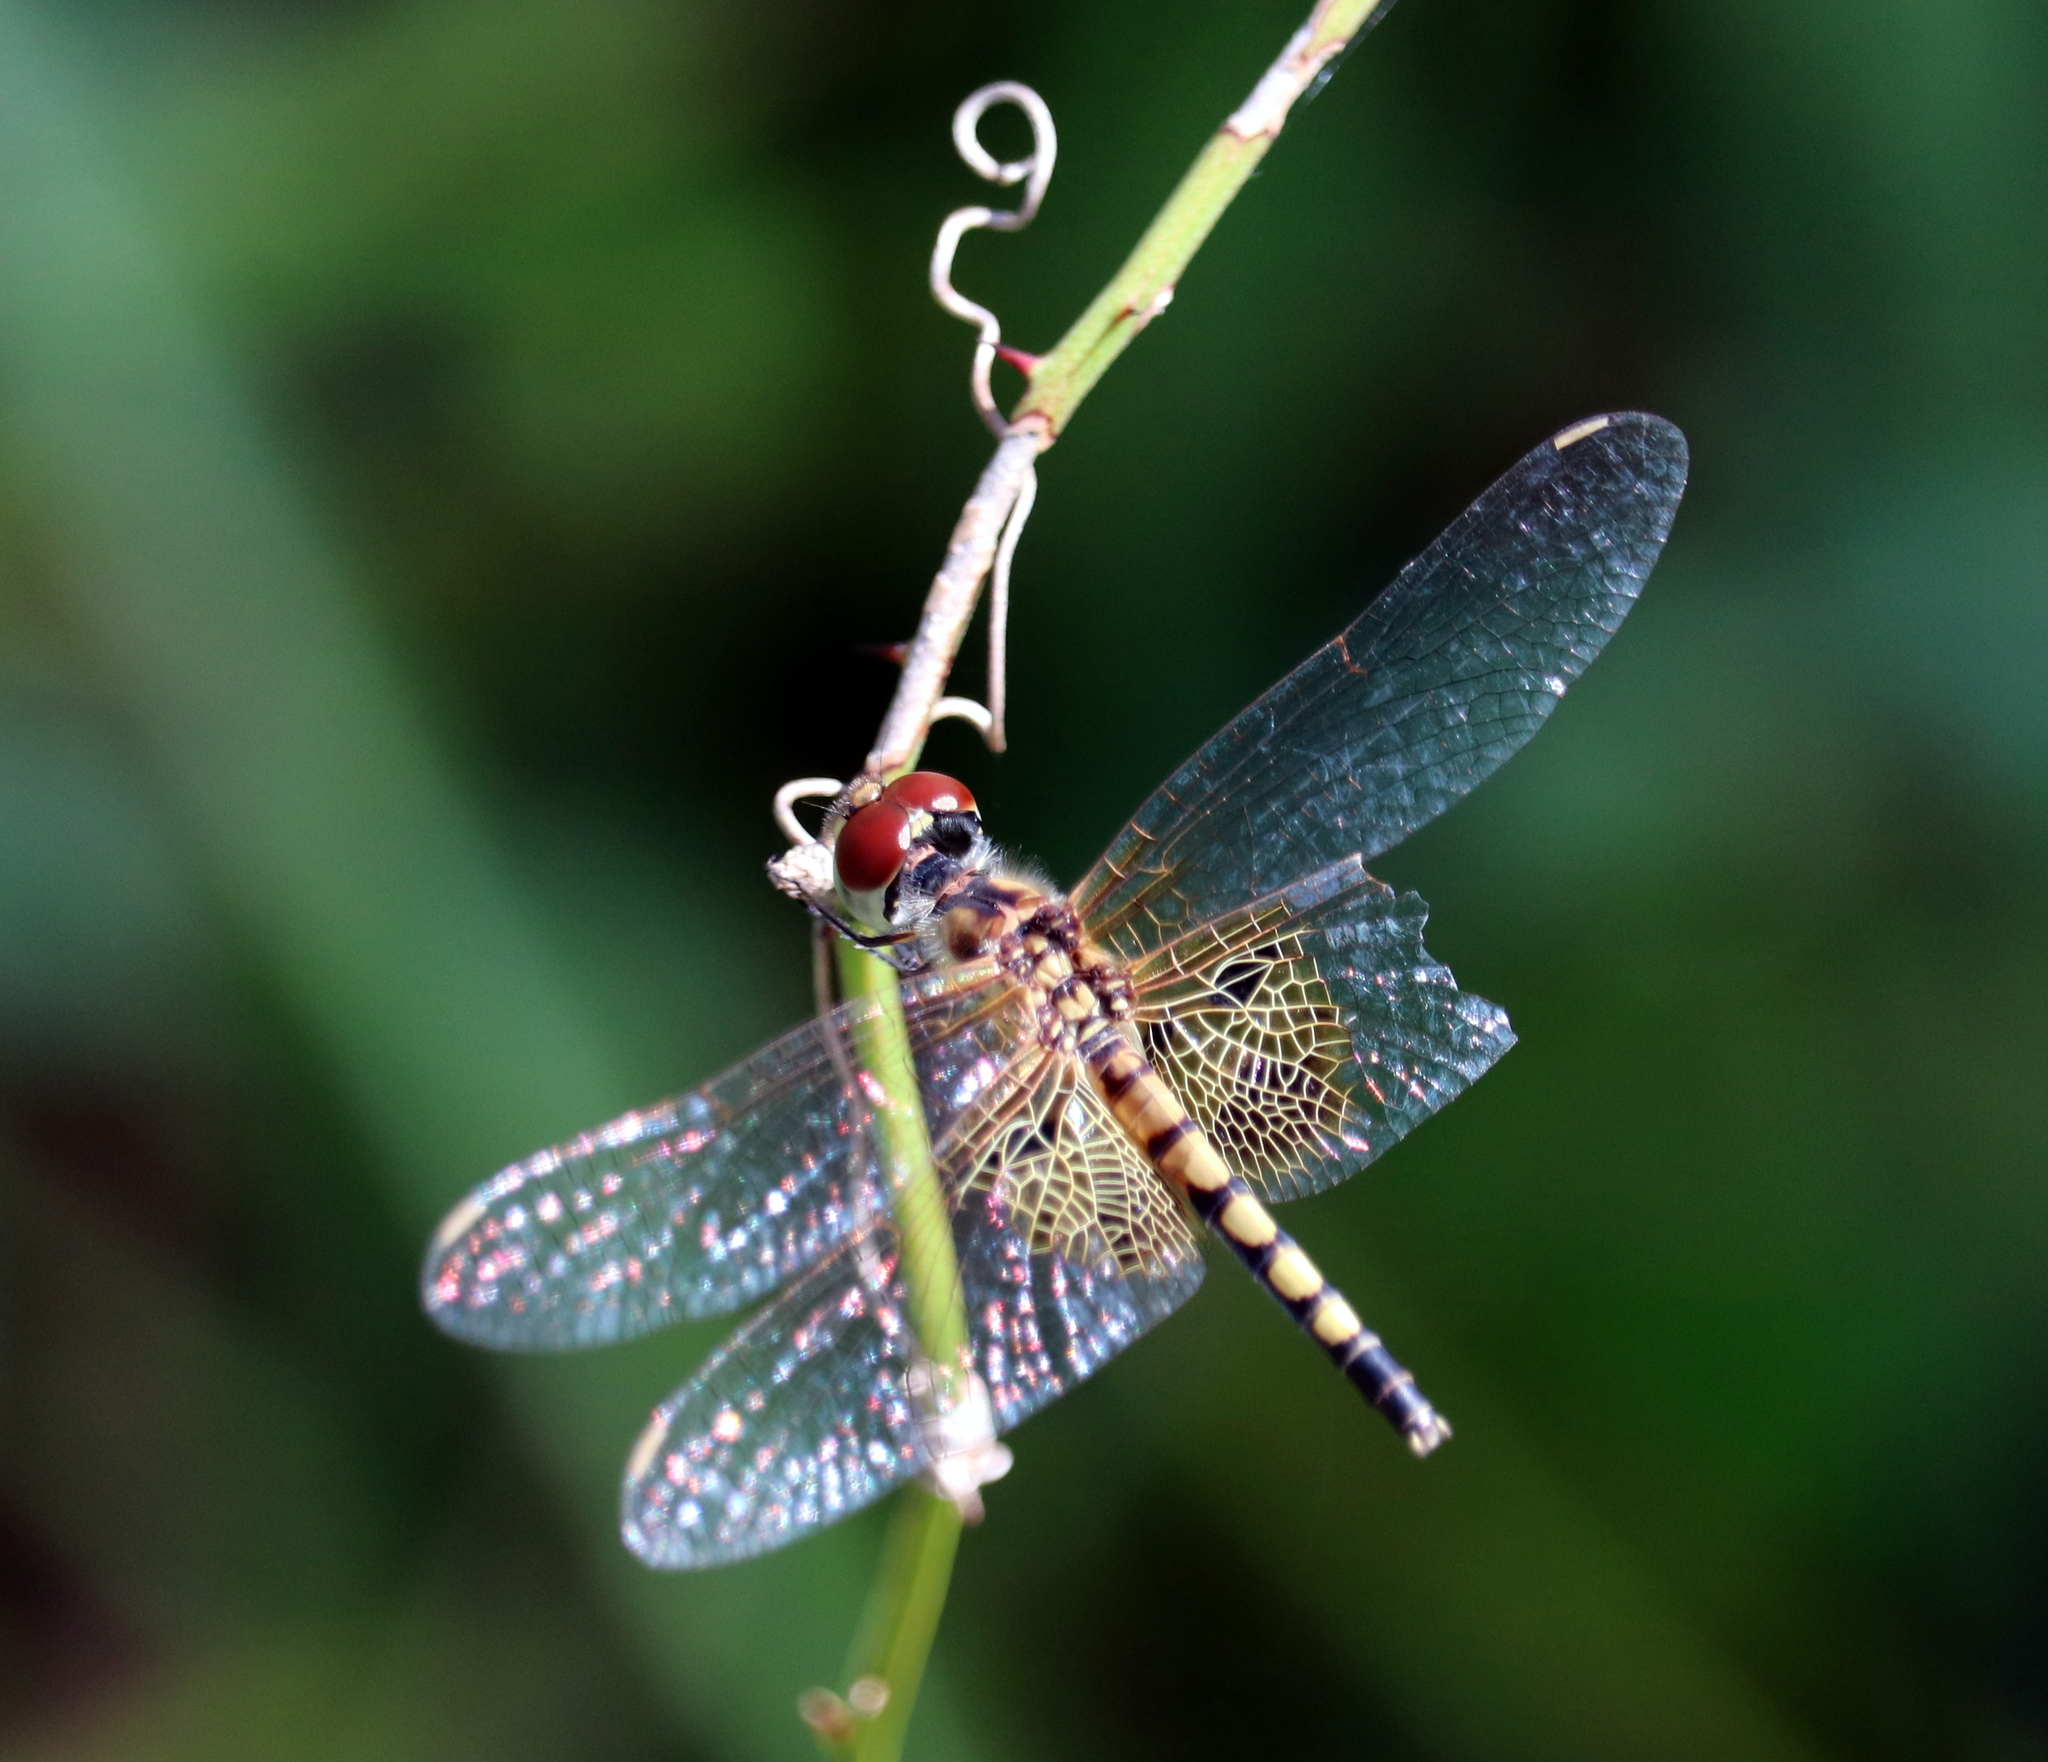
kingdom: Animalia
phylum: Arthropoda
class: Insecta
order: Odonata
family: Libellulidae
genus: Celithemis
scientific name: Celithemis amanda
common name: Amanda's pennant
